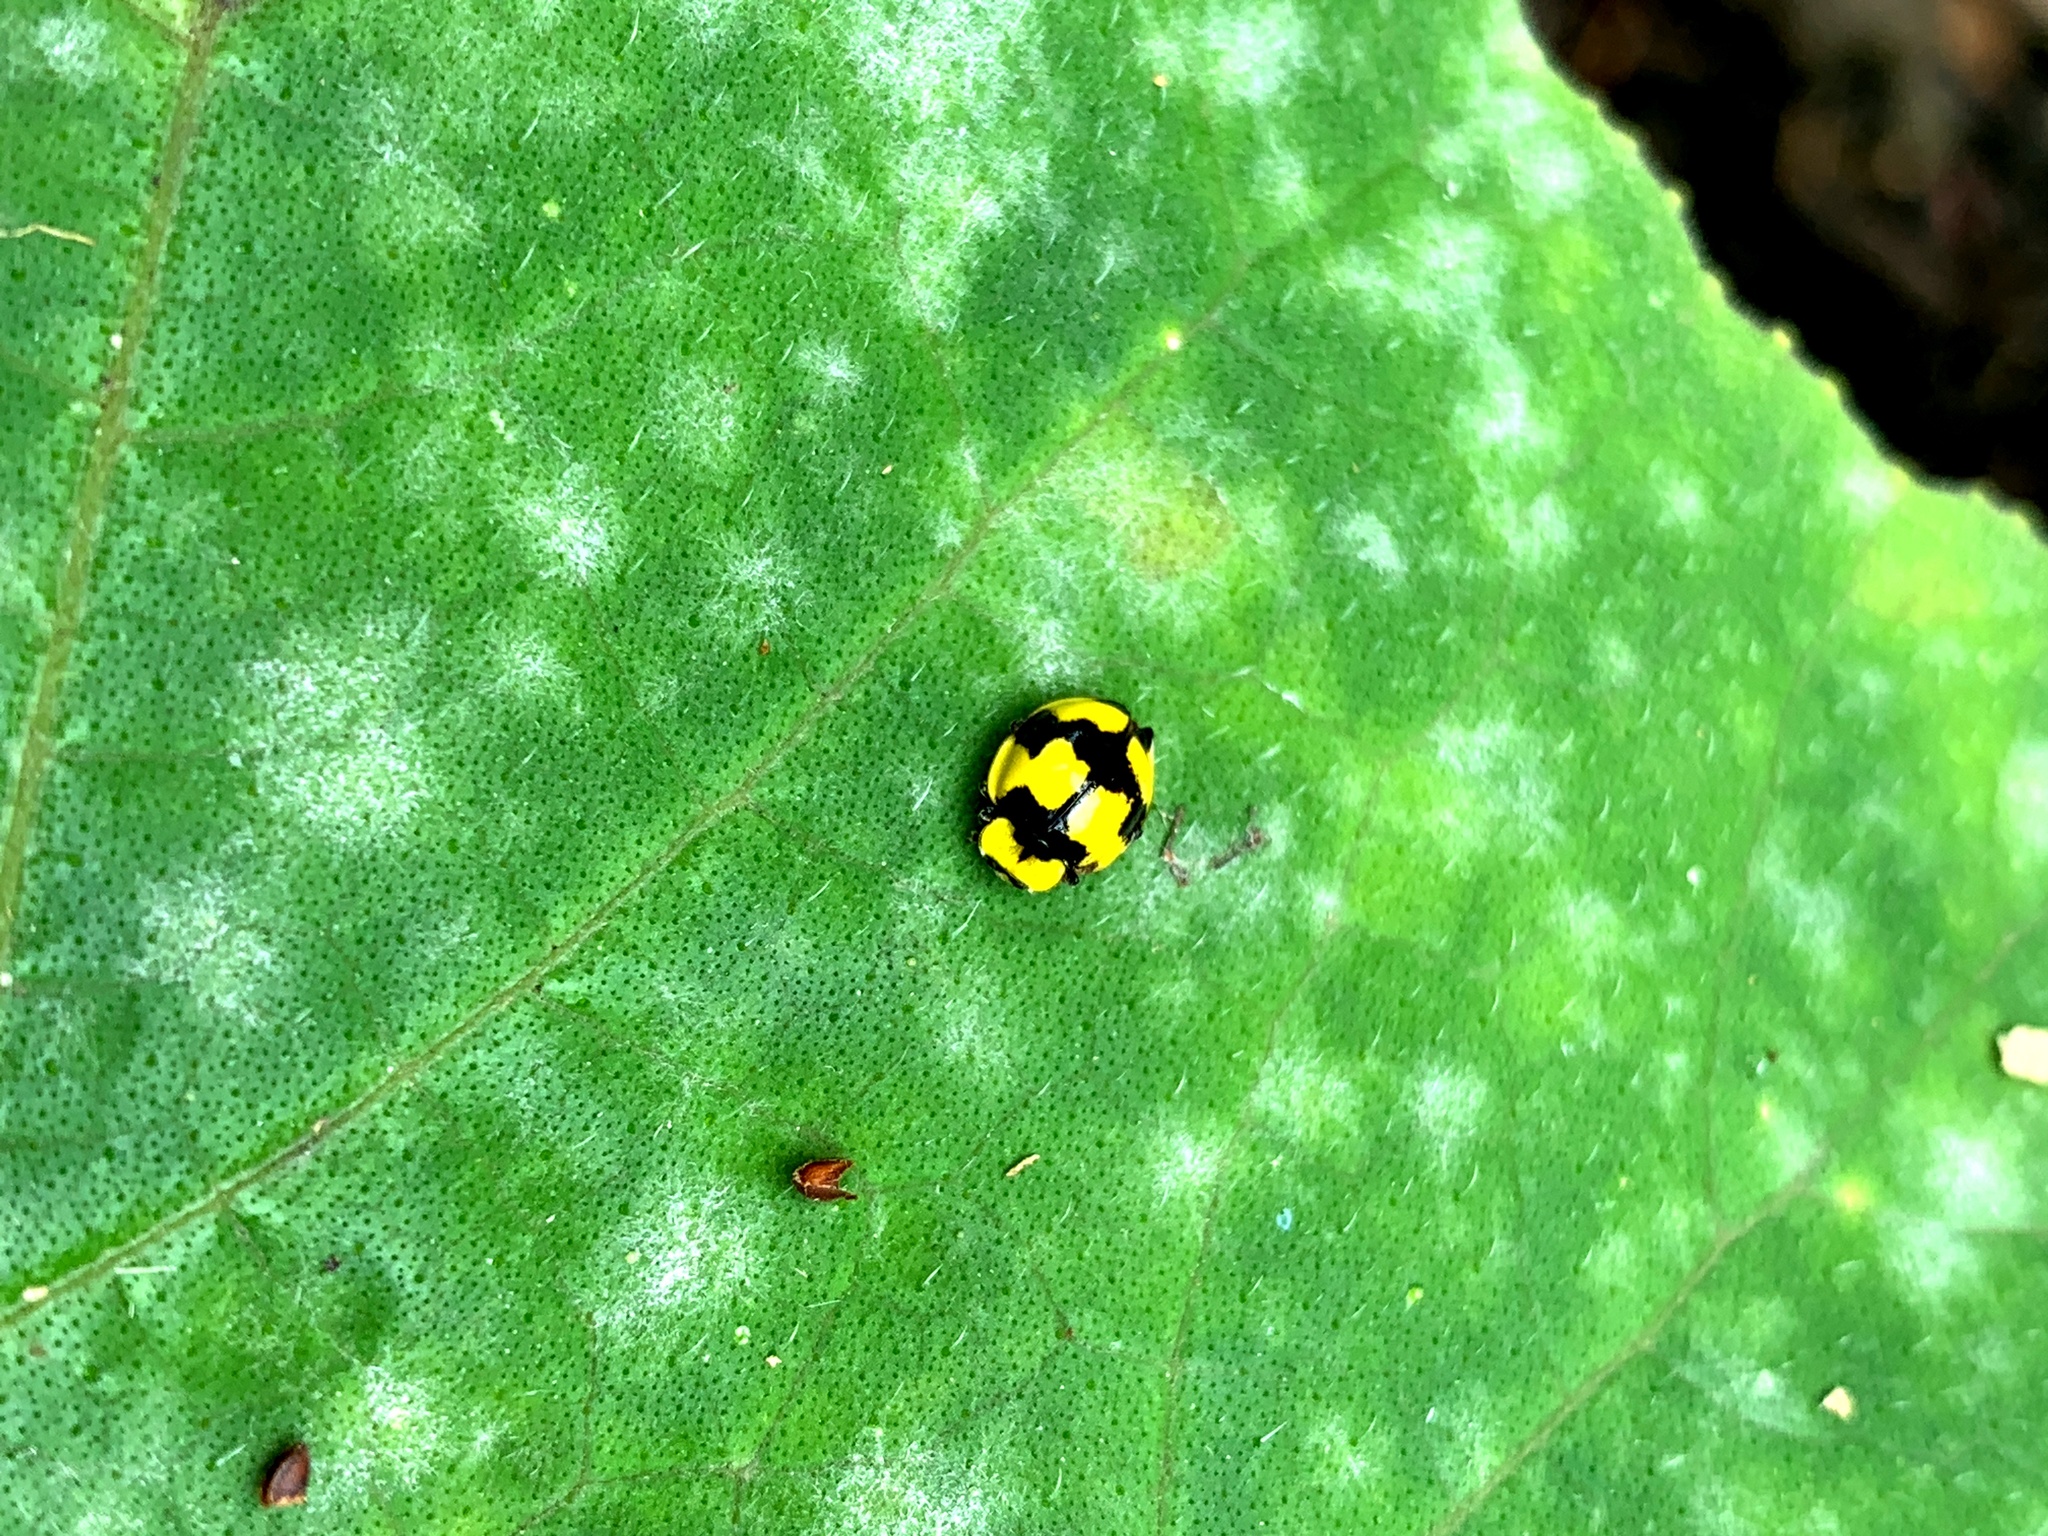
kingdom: Animalia
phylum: Arthropoda
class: Insecta
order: Coleoptera
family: Coccinellidae
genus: Illeis
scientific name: Illeis galbula
